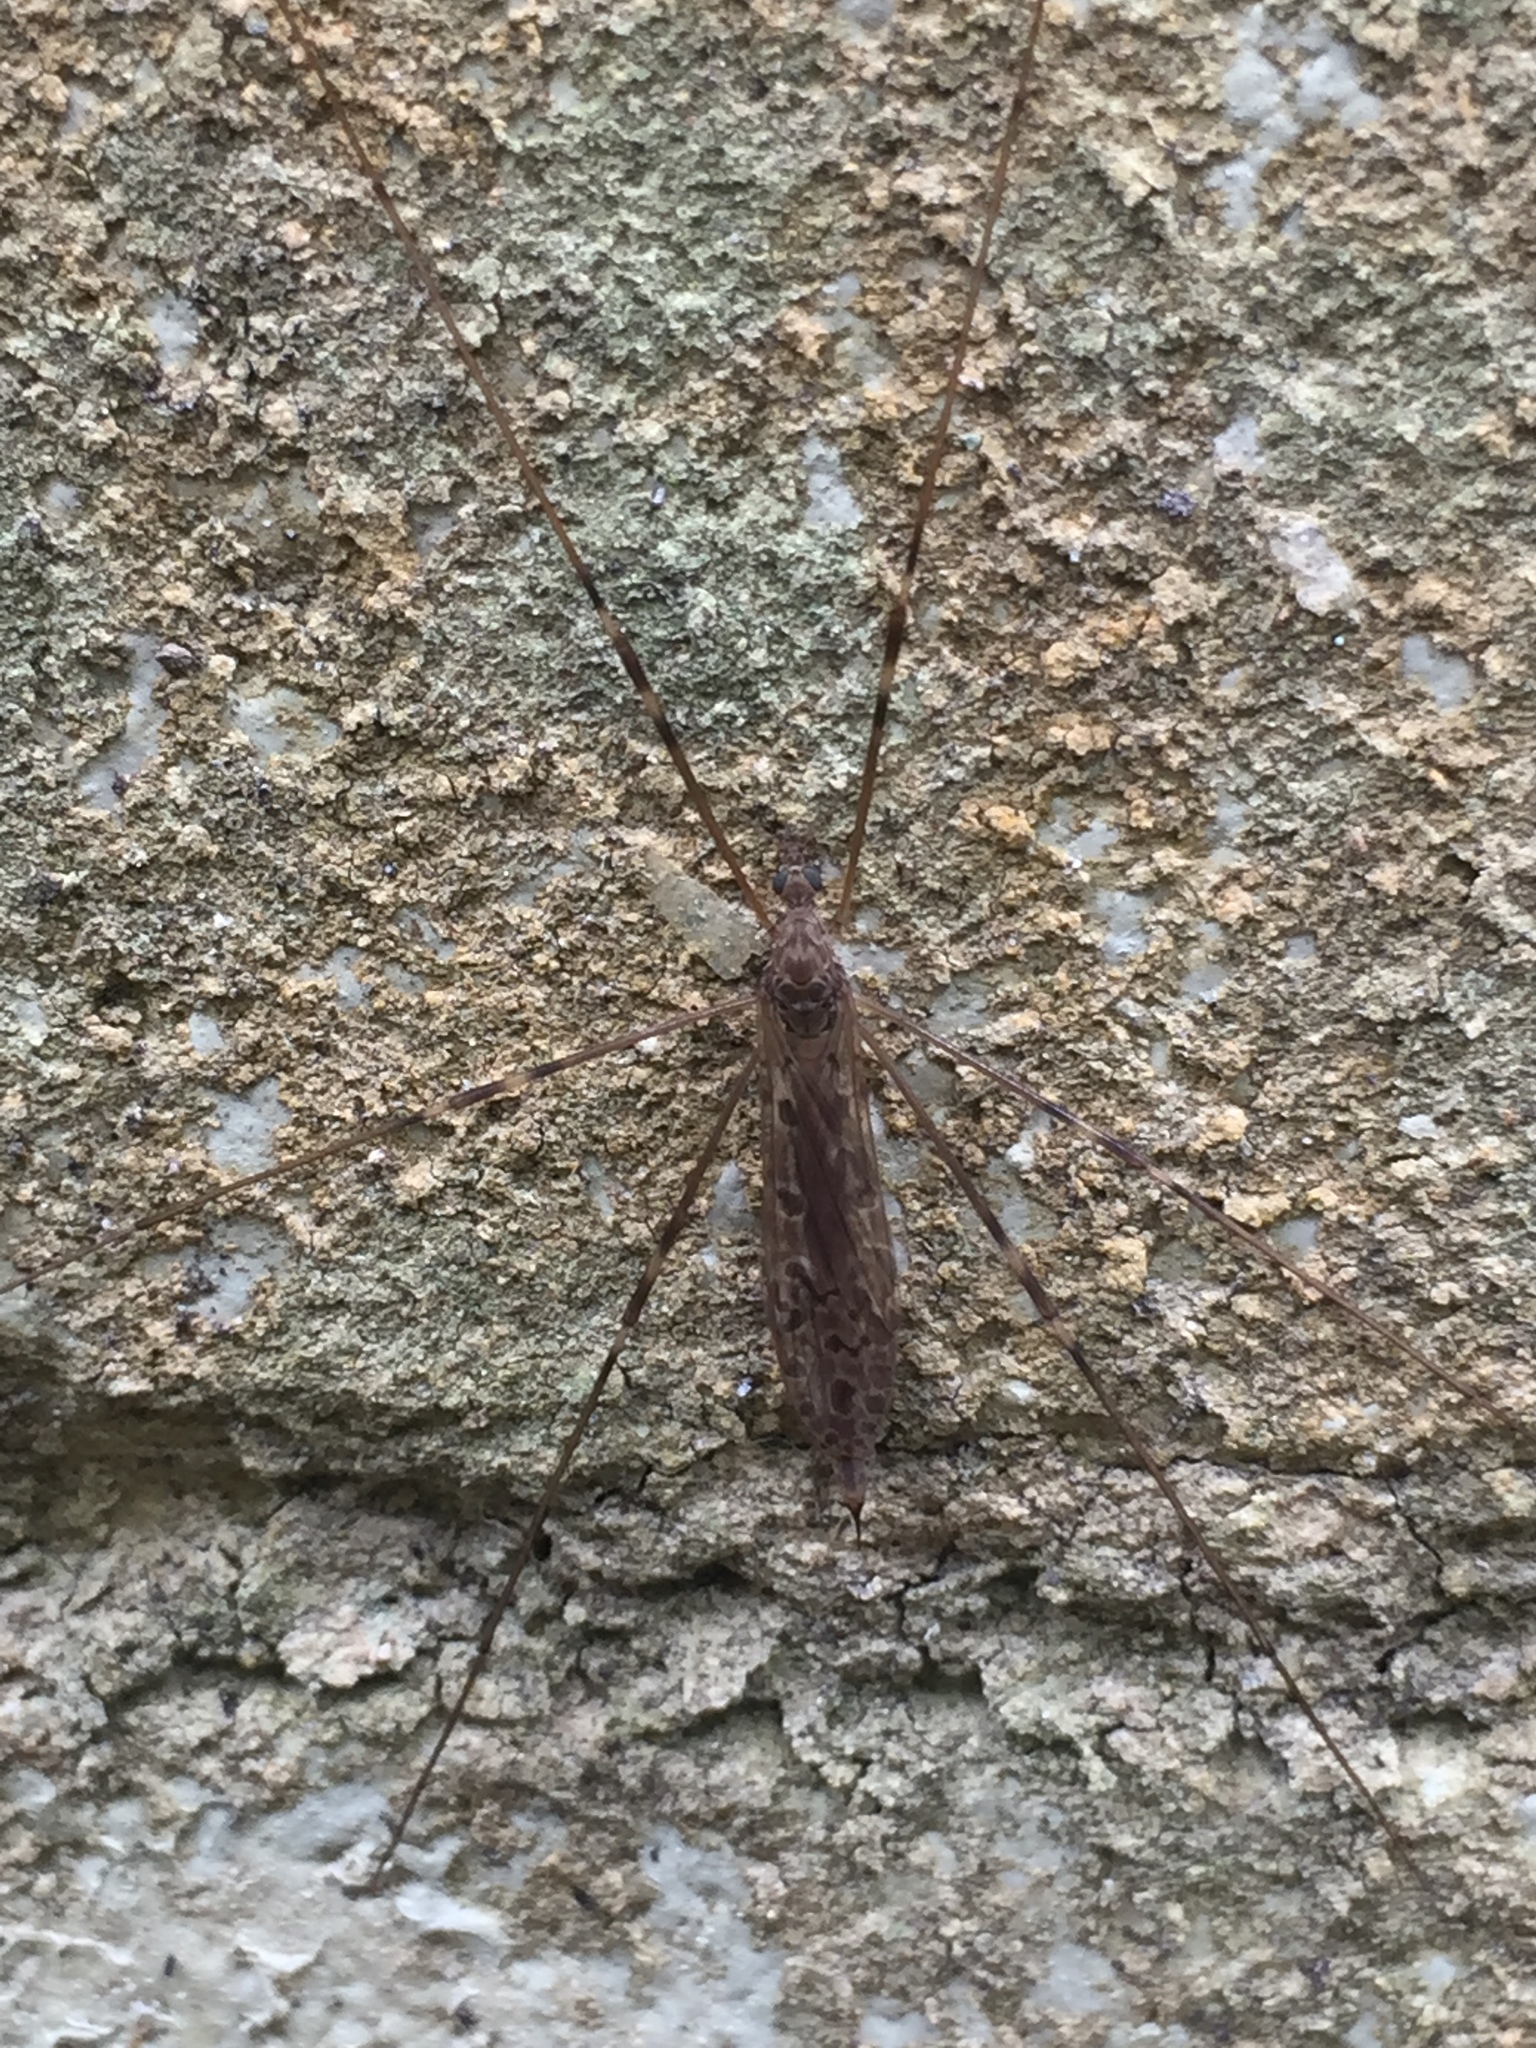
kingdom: Animalia
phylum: Arthropoda
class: Insecta
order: Diptera
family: Limoniidae
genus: Austrolimnophila
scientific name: Austrolimnophila crassipes
